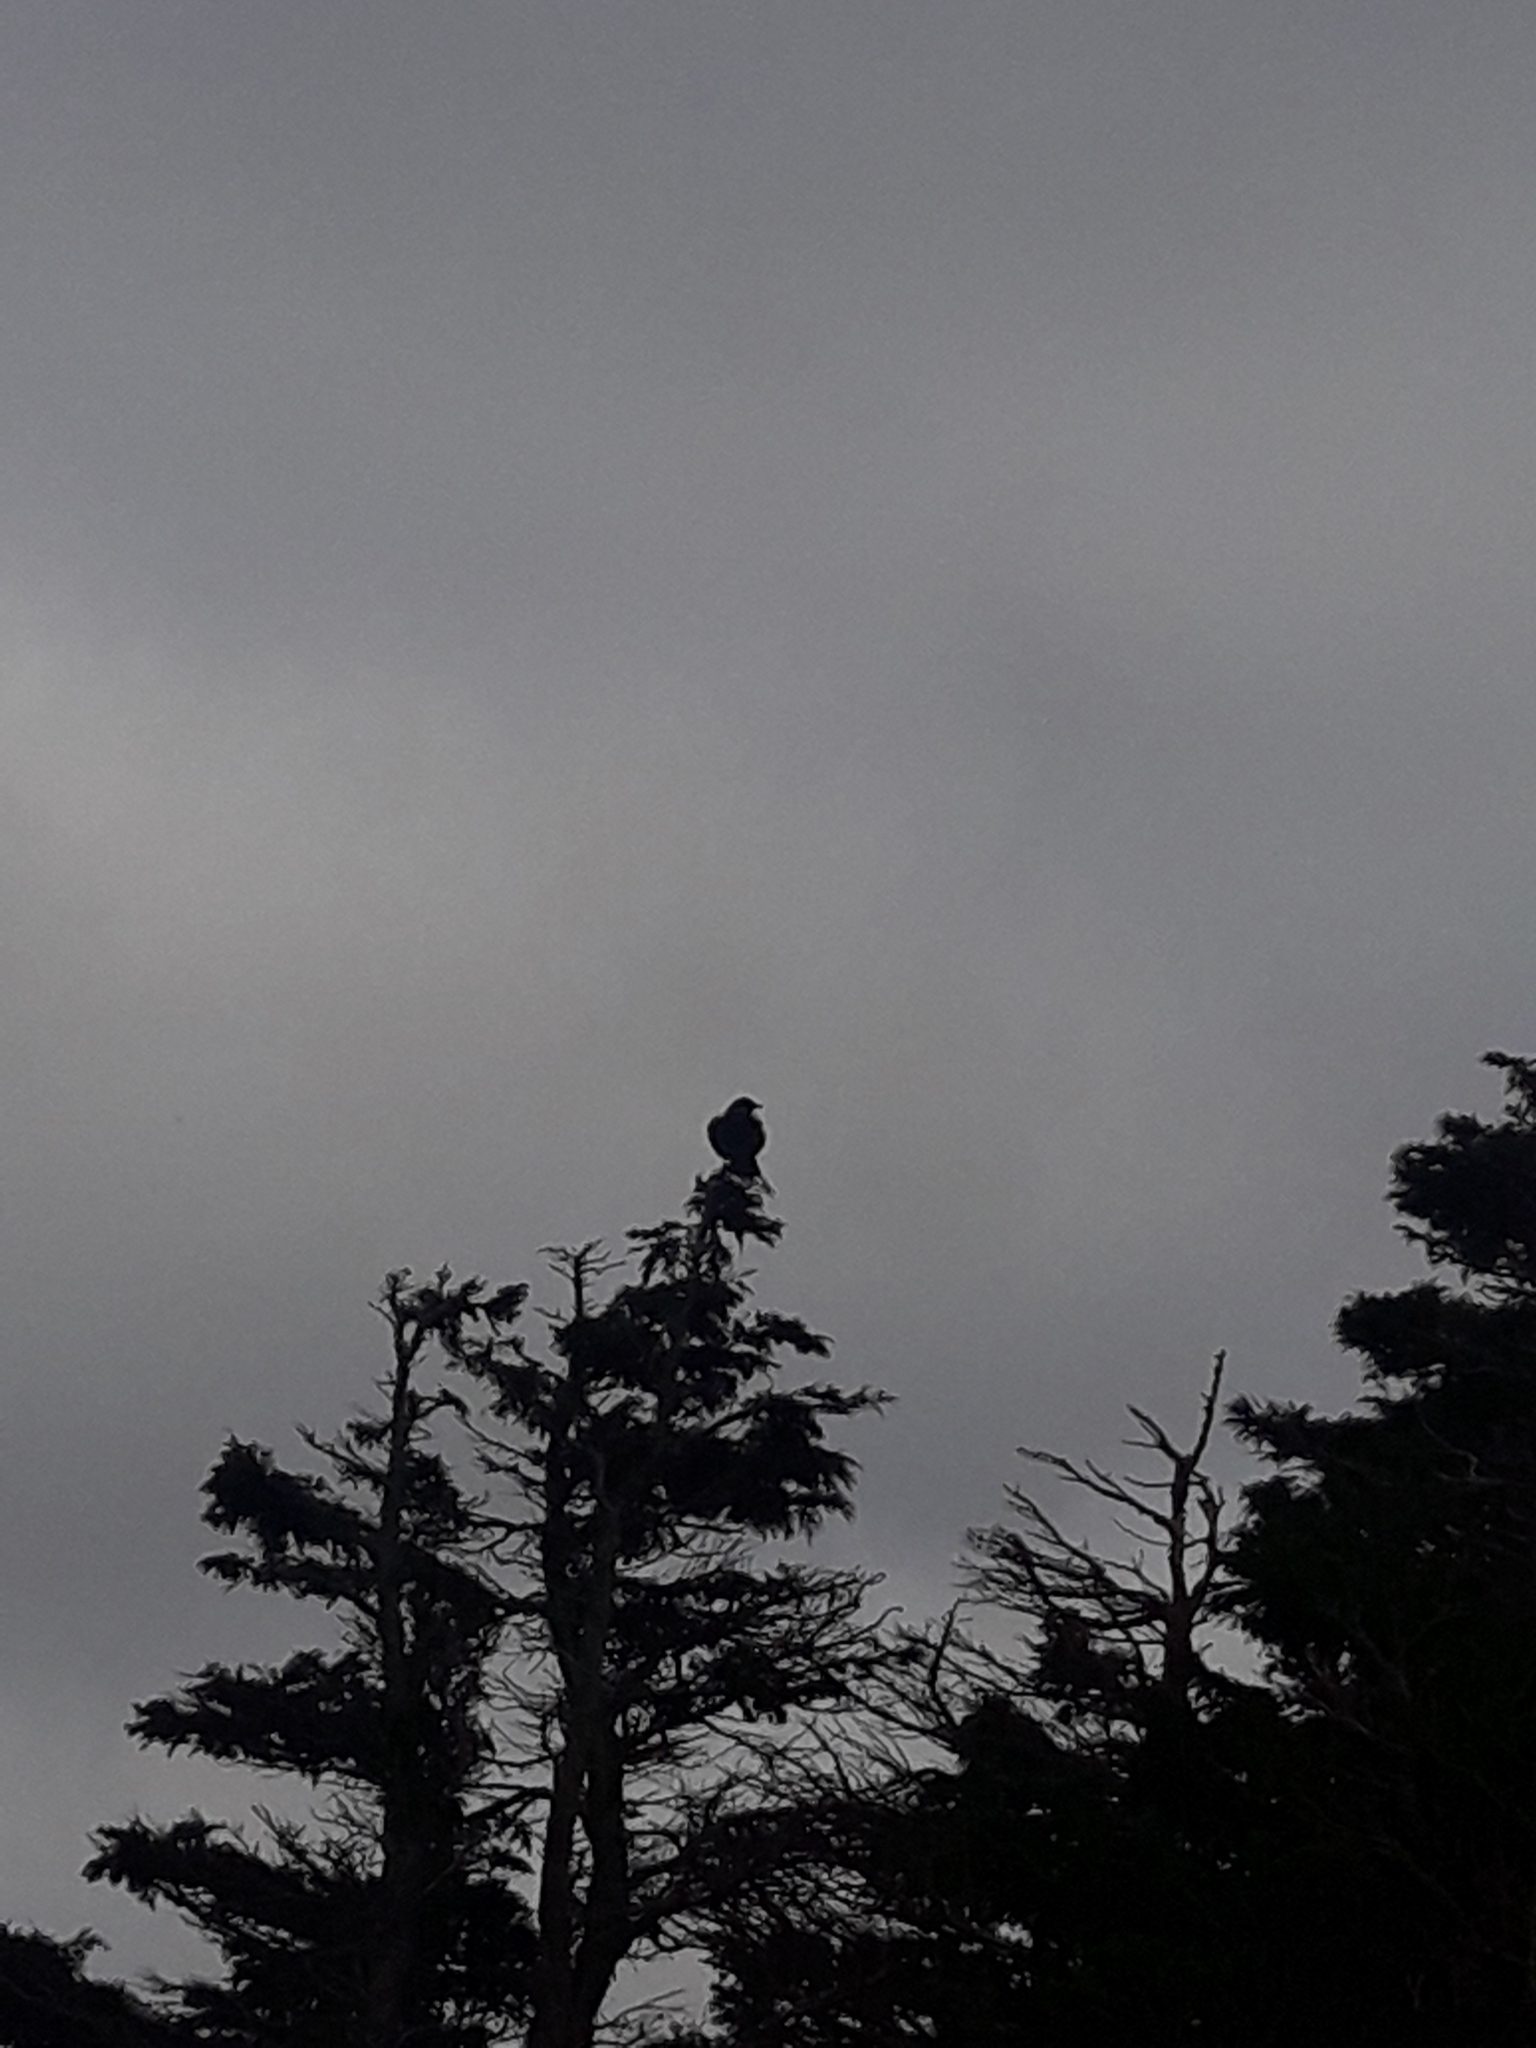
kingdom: Animalia
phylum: Chordata
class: Aves
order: Passeriformes
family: Meliphagidae
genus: Prosthemadera
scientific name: Prosthemadera novaeseelandiae
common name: Tui
